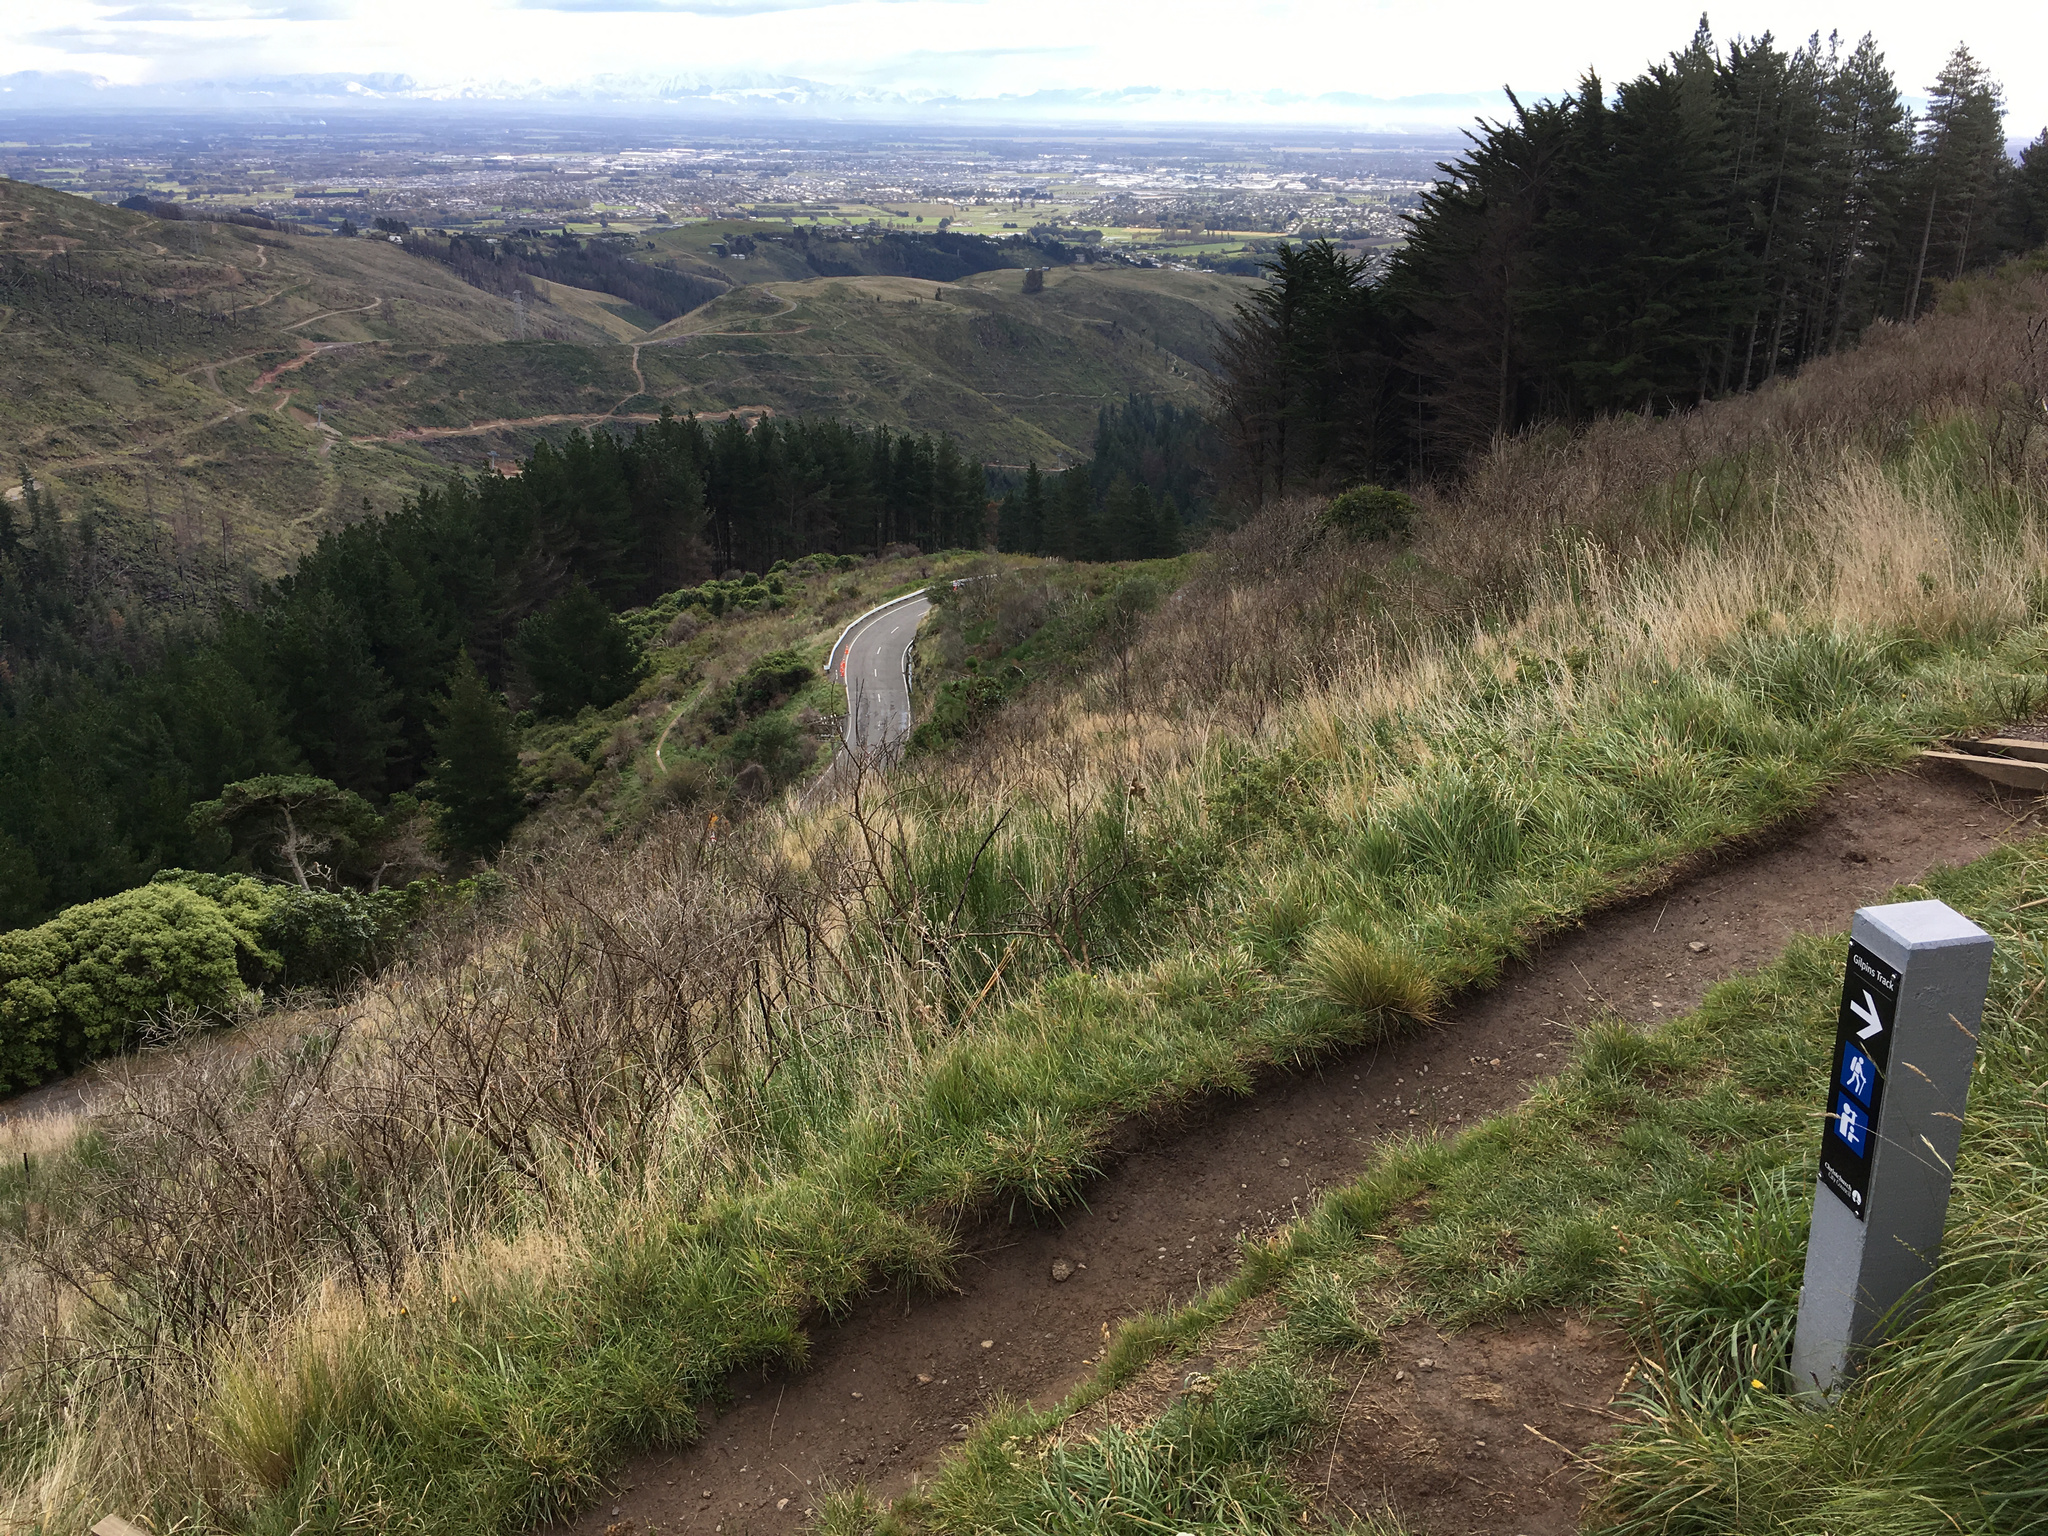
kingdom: Plantae
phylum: Tracheophyta
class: Magnoliopsida
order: Fabales
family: Fabaceae
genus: Cytisus
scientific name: Cytisus scoparius
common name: Scotch broom
